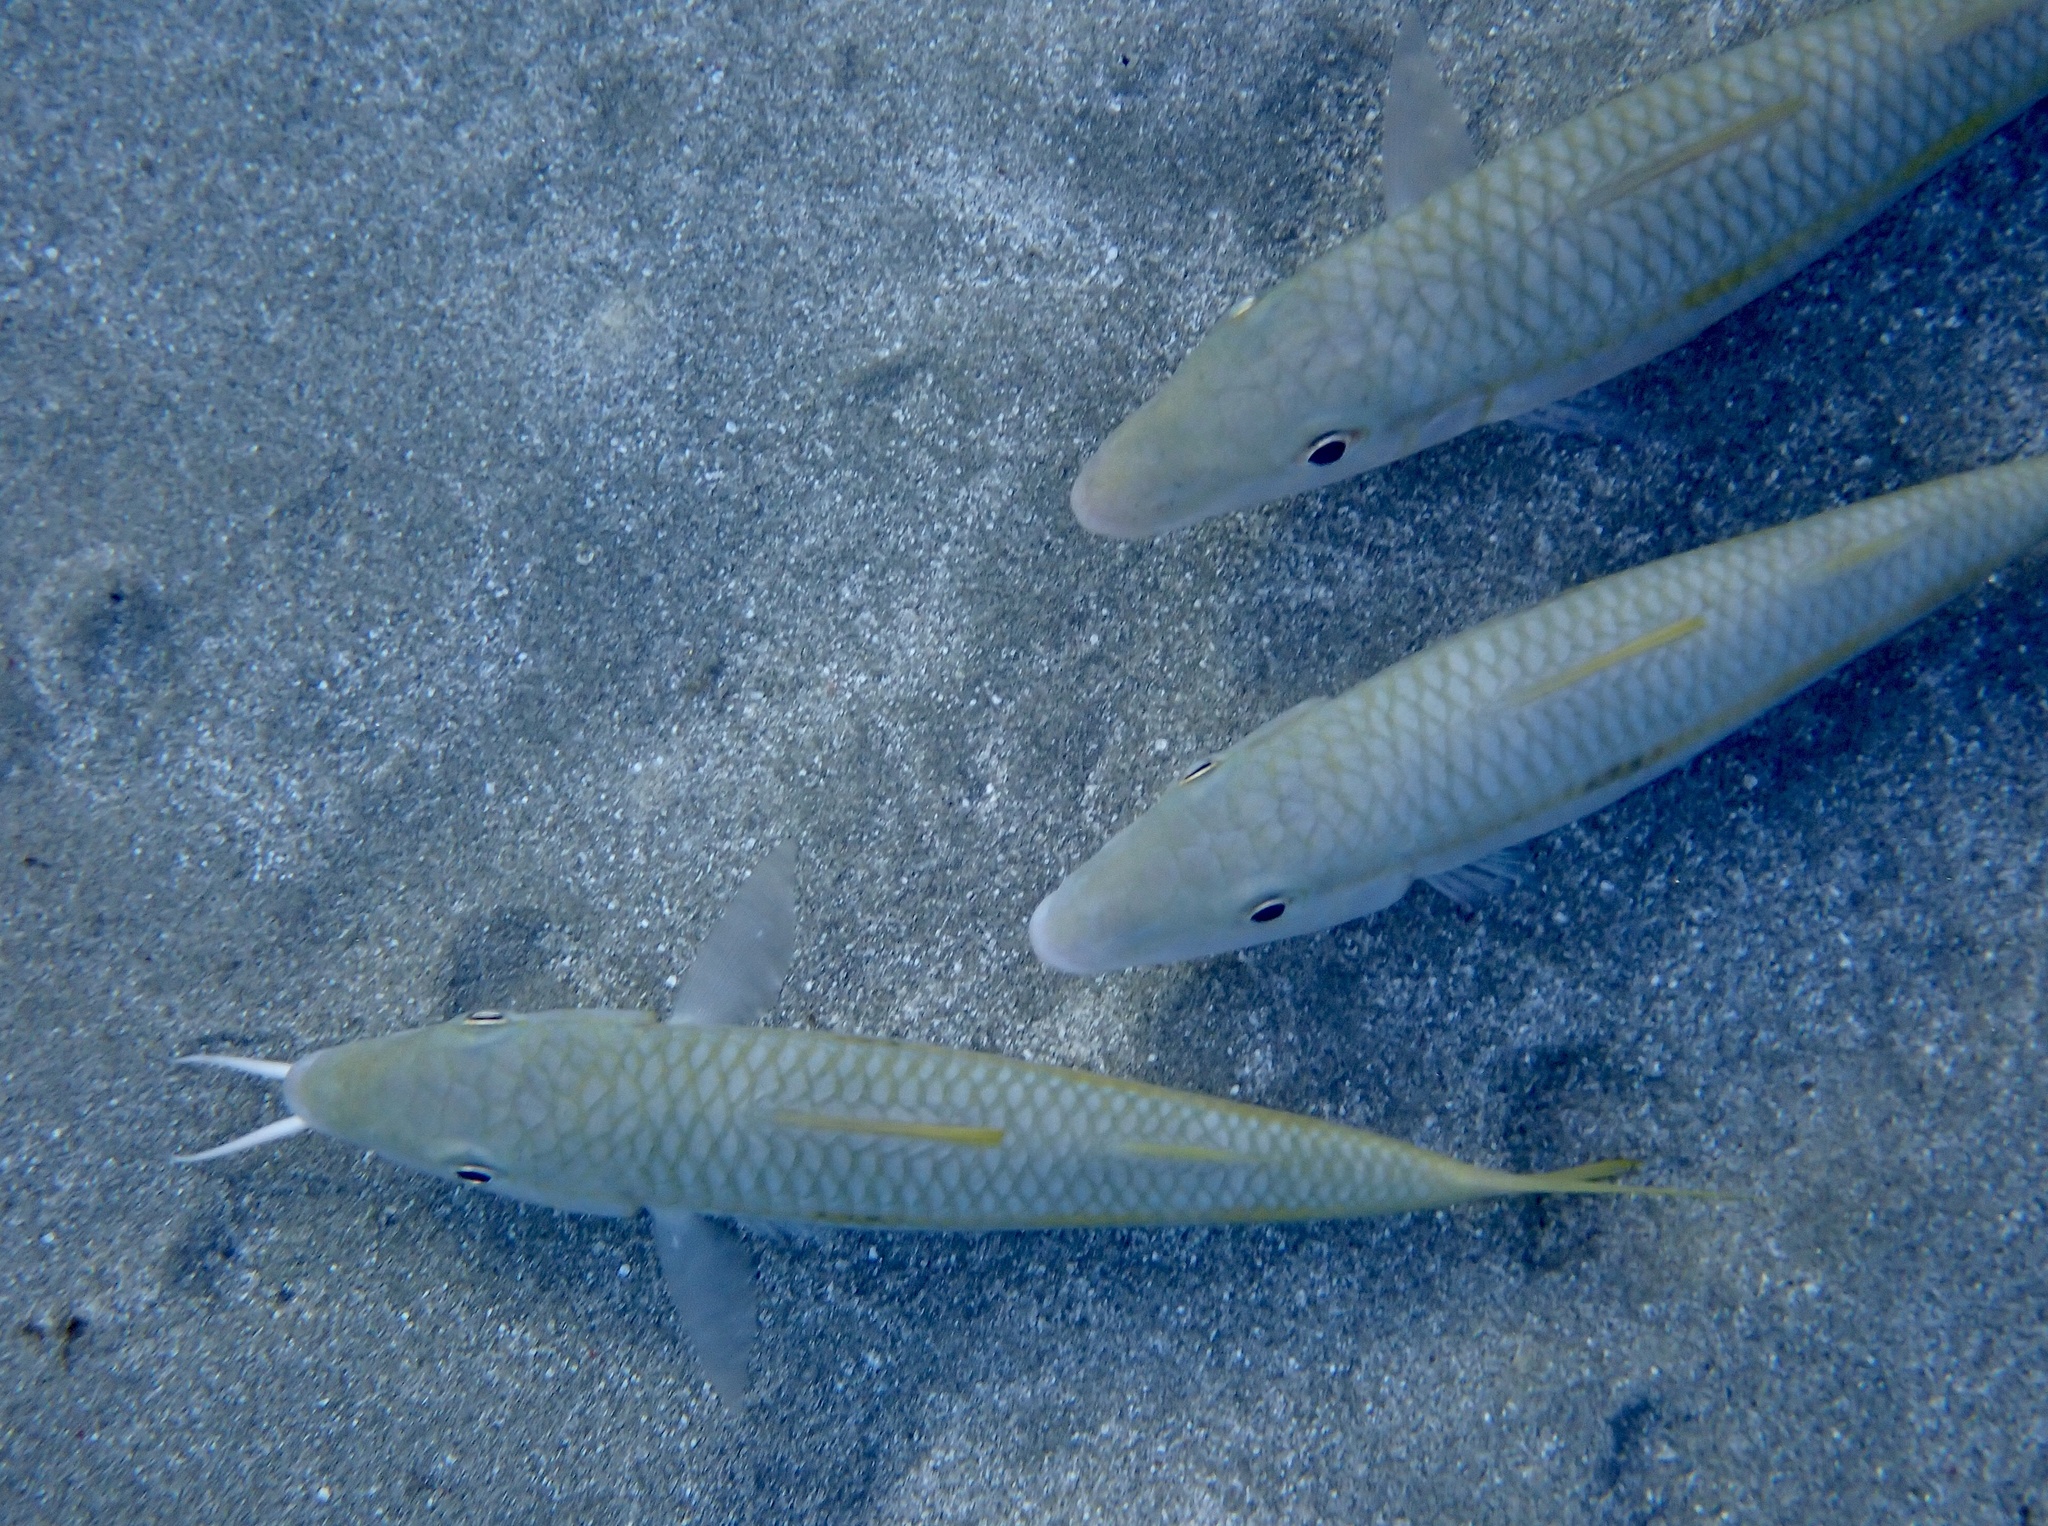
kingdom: Animalia
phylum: Chordata
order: Perciformes
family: Mullidae
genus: Mulloidichthys
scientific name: Mulloidichthys flavolineatus
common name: Yellowstripe goatfish
